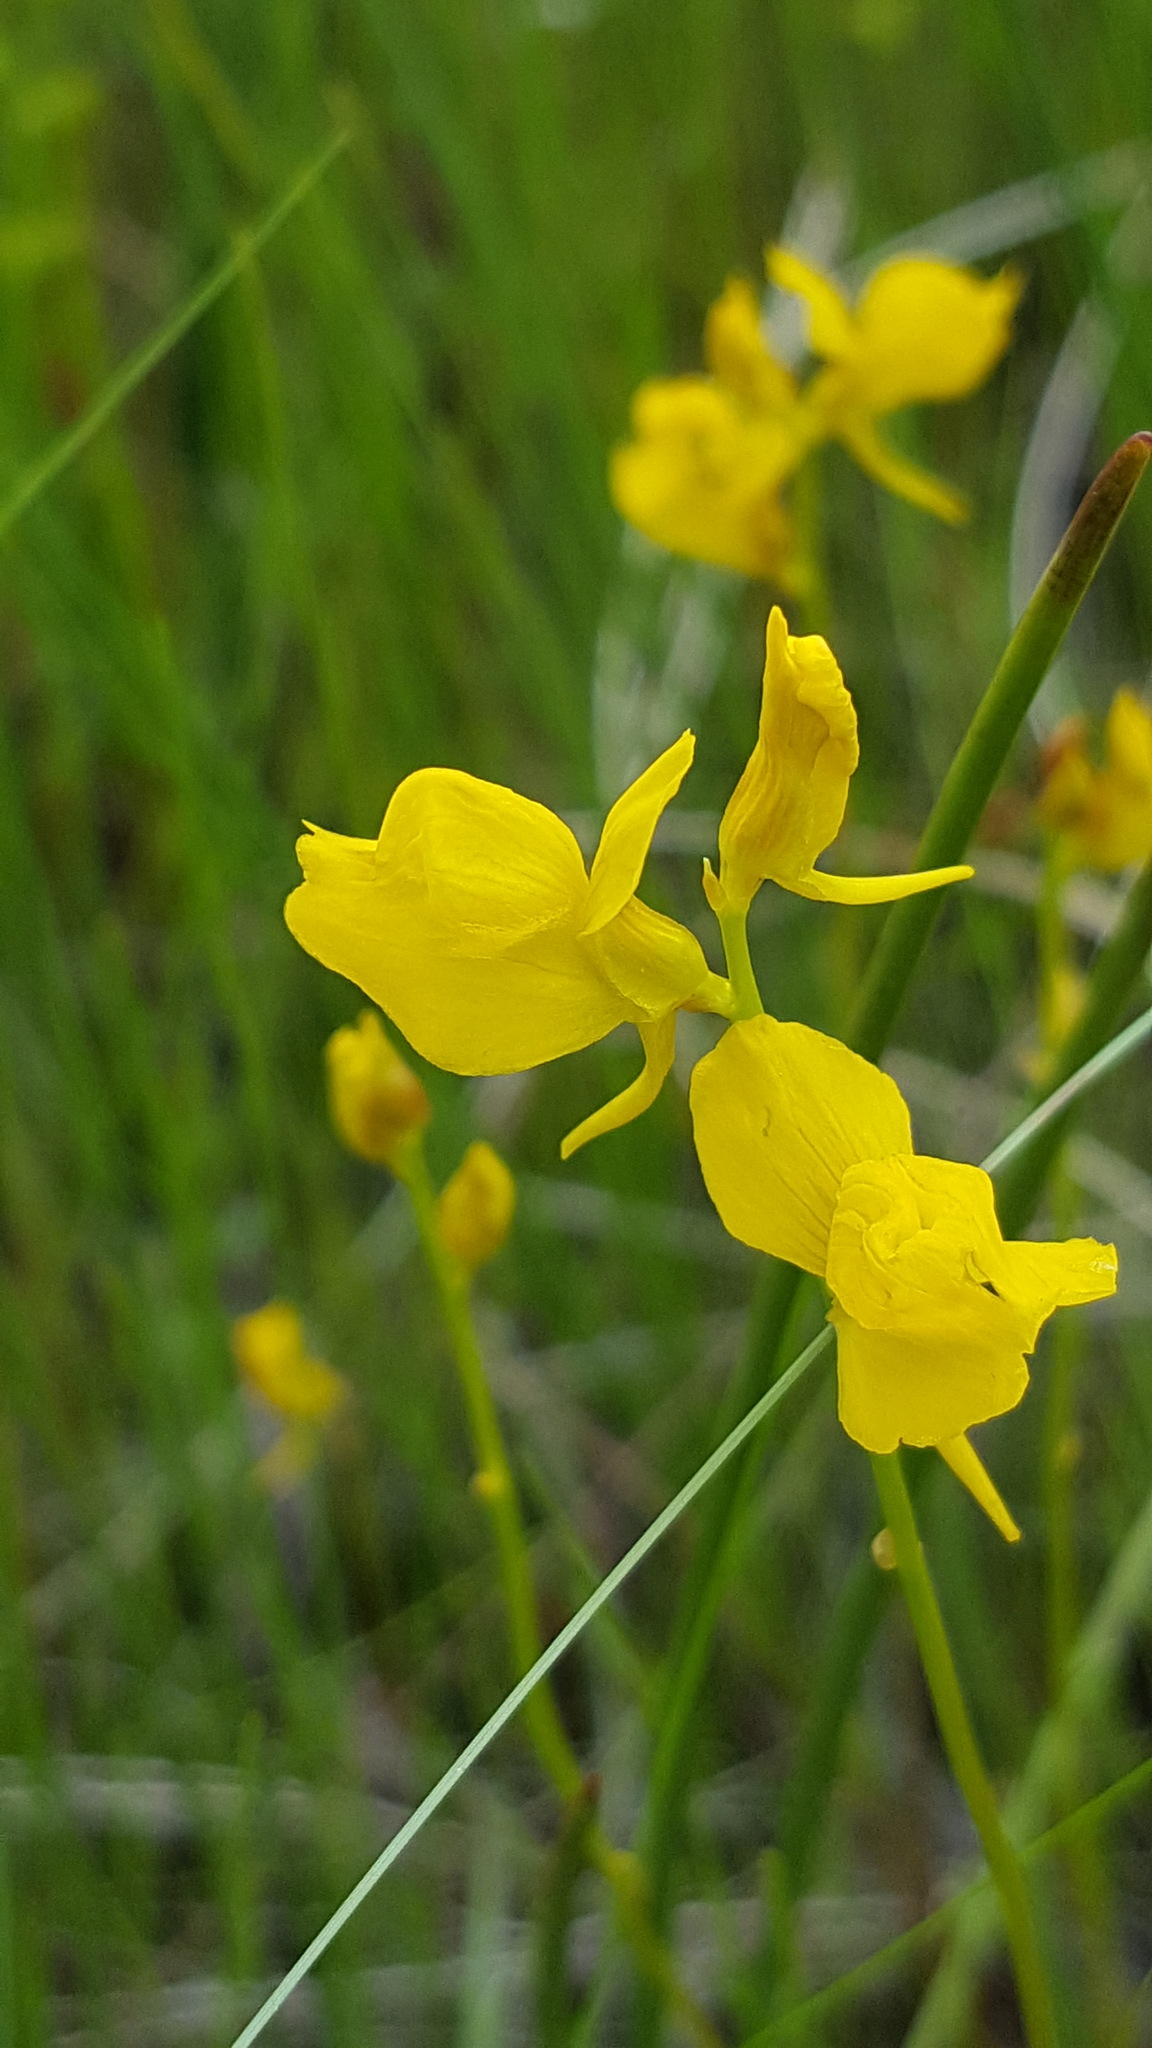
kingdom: Plantae
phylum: Tracheophyta
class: Magnoliopsida
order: Lamiales
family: Lentibulariaceae
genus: Utricularia
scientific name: Utricularia cornuta
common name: Horned bladderwort
